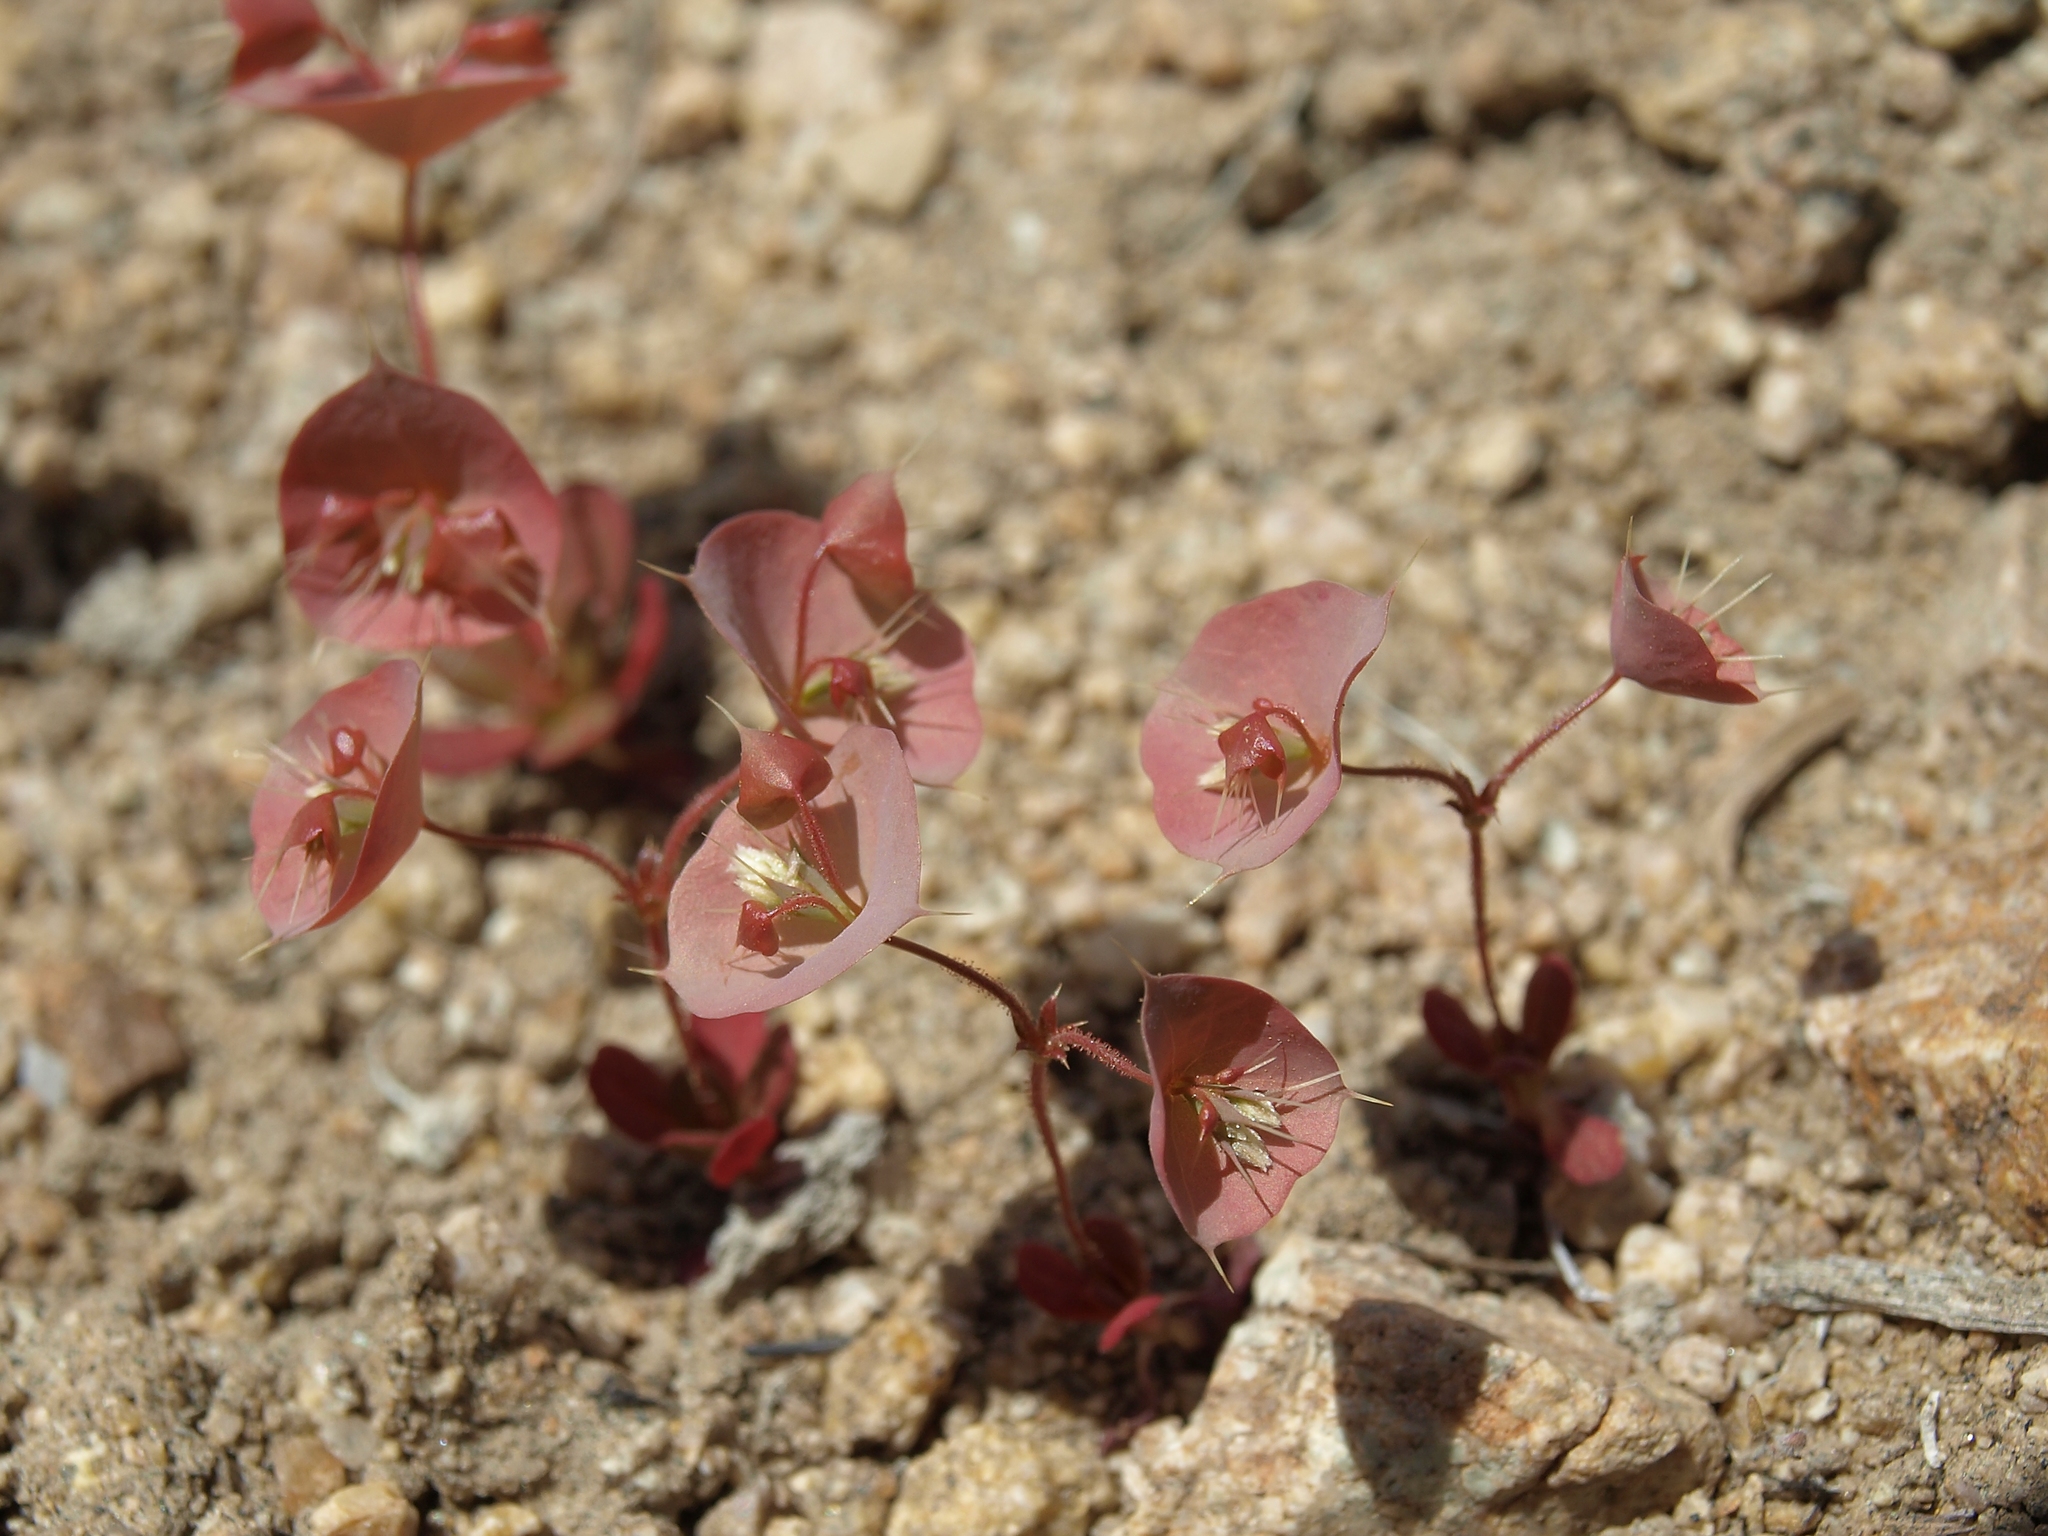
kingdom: Plantae
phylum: Tracheophyta
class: Magnoliopsida
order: Caryophyllales
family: Polygonaceae
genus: Oxytheca
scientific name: Oxytheca perfoliata
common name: Round-leaf puncturebract
